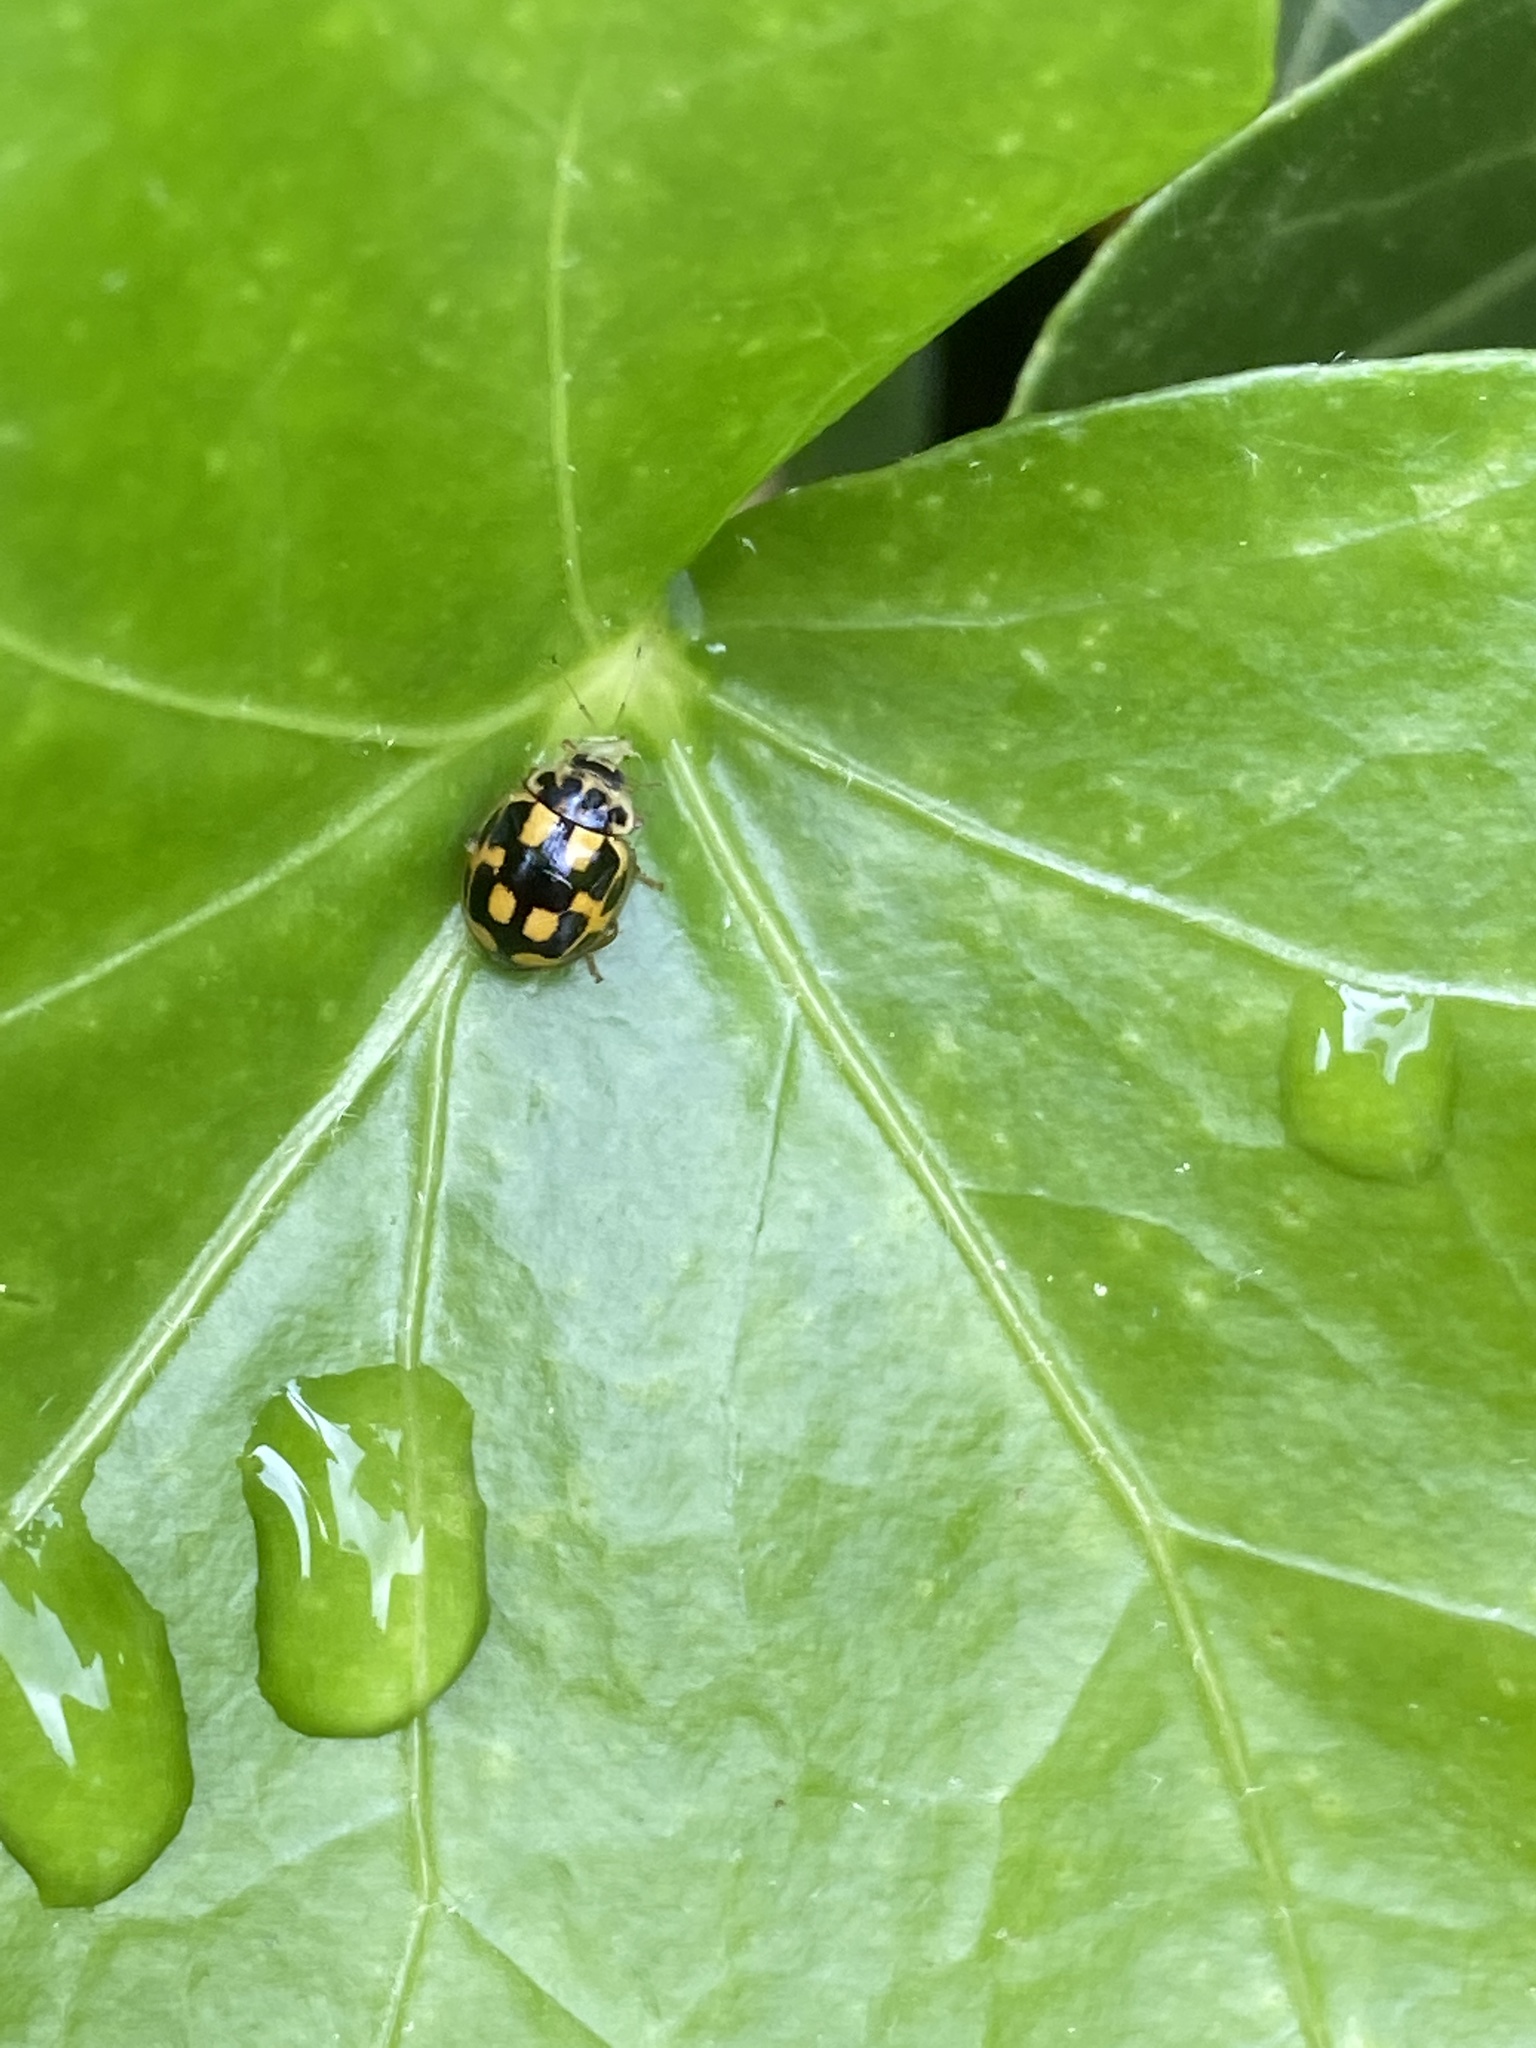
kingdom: Animalia
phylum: Arthropoda
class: Insecta
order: Coleoptera
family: Coccinellidae
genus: Propylaea
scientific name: Propylaea quatuordecimpunctata
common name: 14-spotted ladybird beetle
